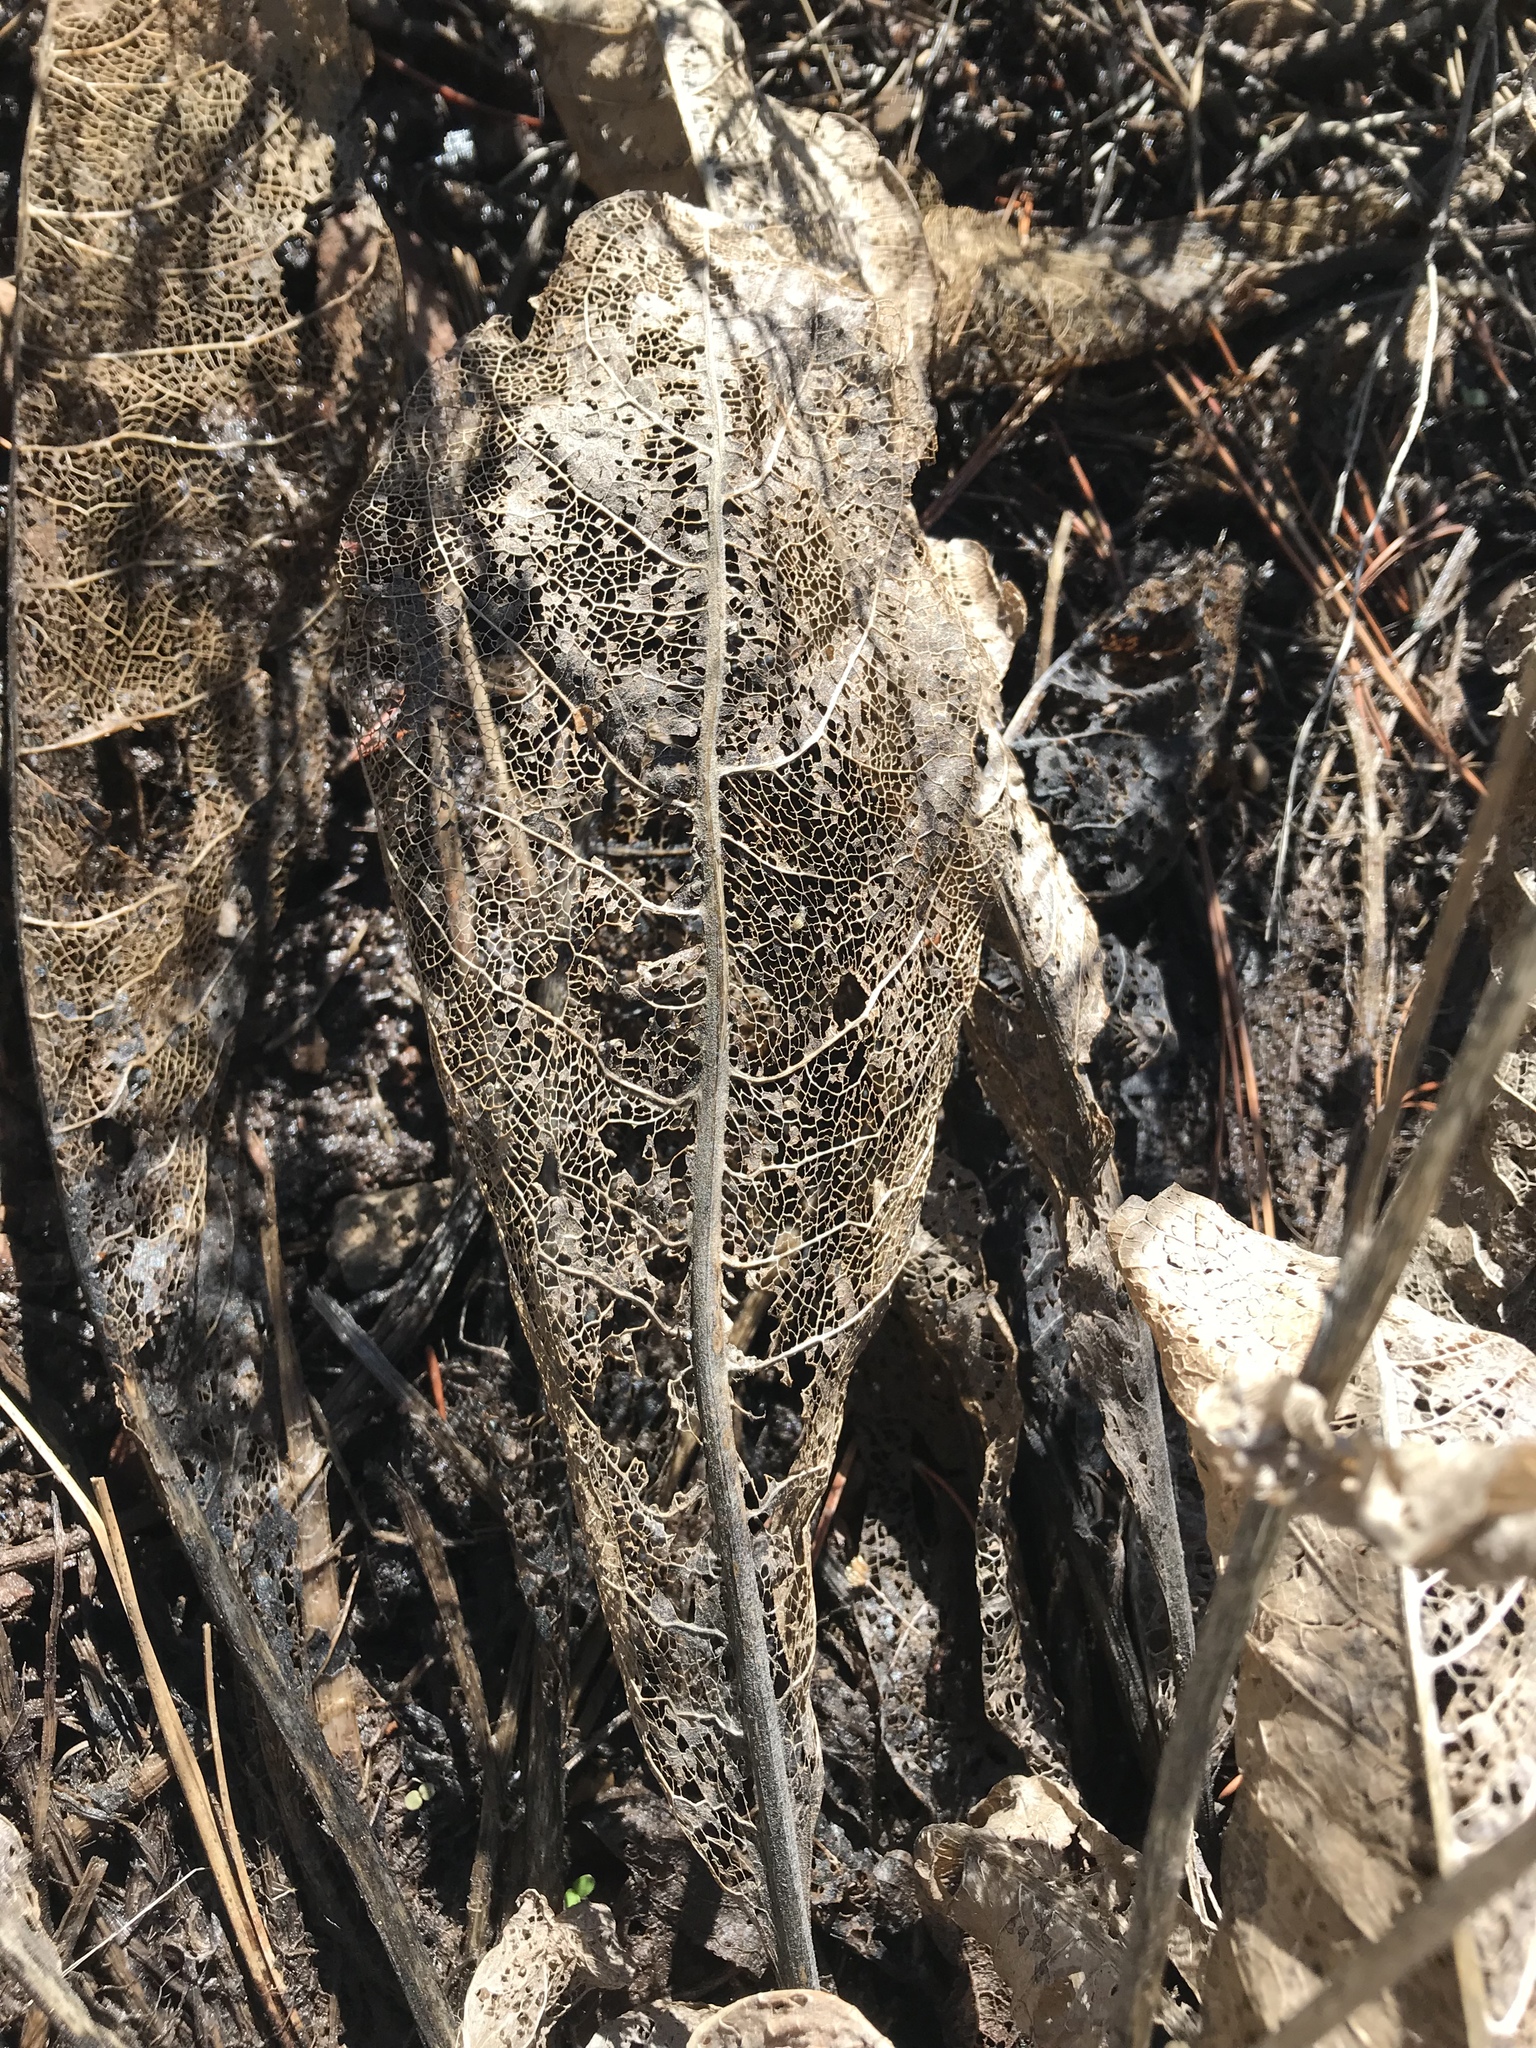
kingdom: Plantae
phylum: Tracheophyta
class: Magnoliopsida
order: Asterales
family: Asteraceae
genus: Wyethia
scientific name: Wyethia mollis
